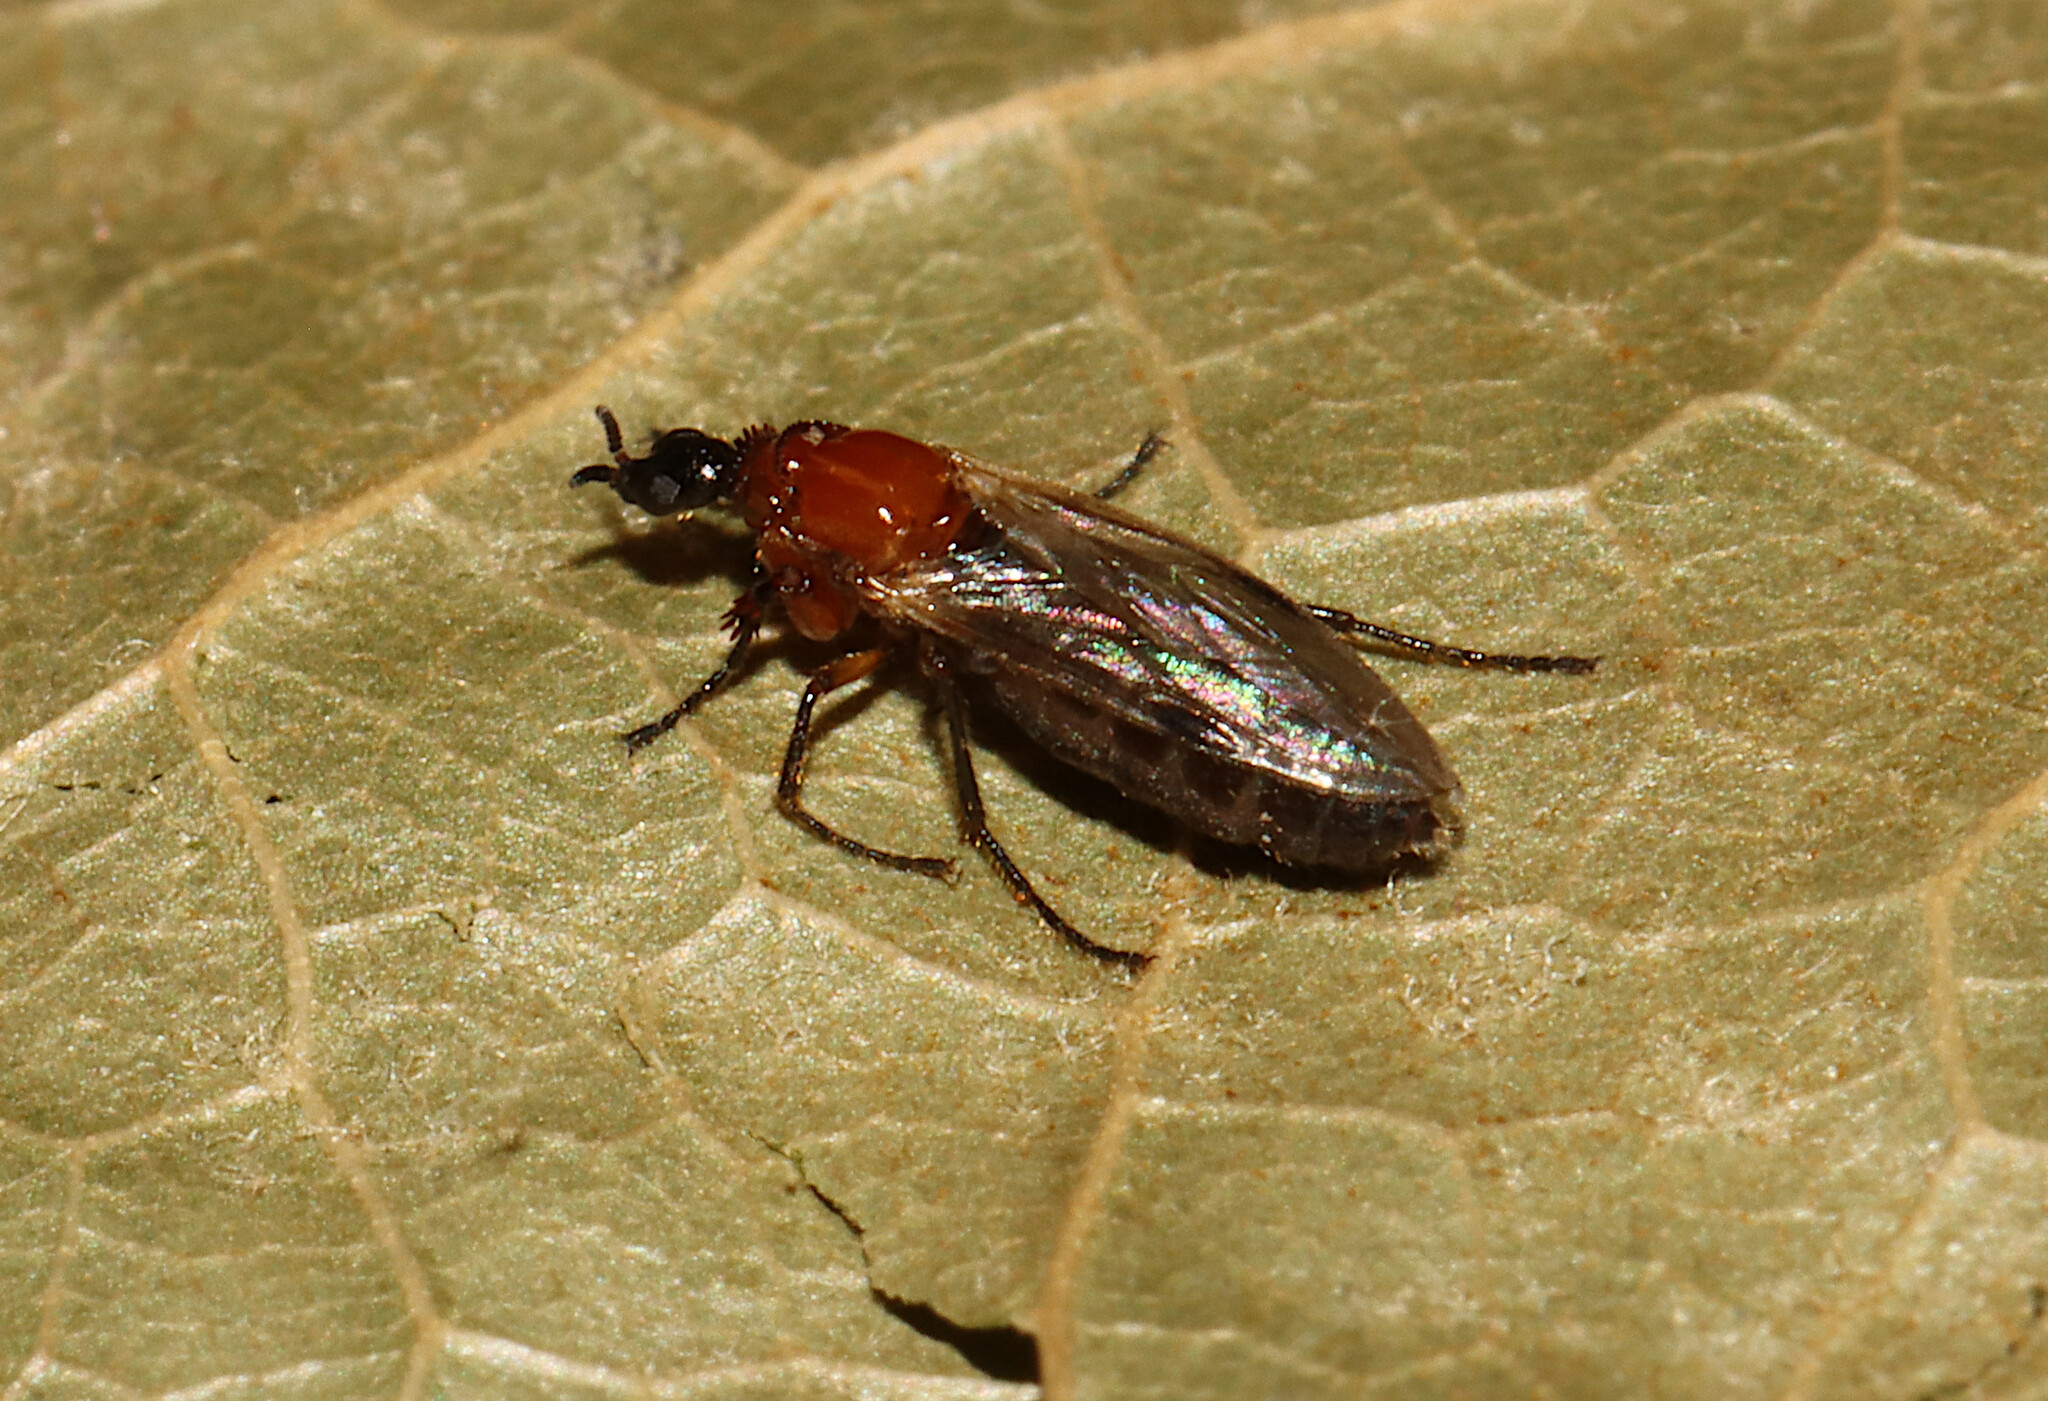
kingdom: Animalia
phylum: Arthropoda
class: Insecta
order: Diptera
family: Bibionidae
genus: Dilophus
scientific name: Dilophus tibialis
